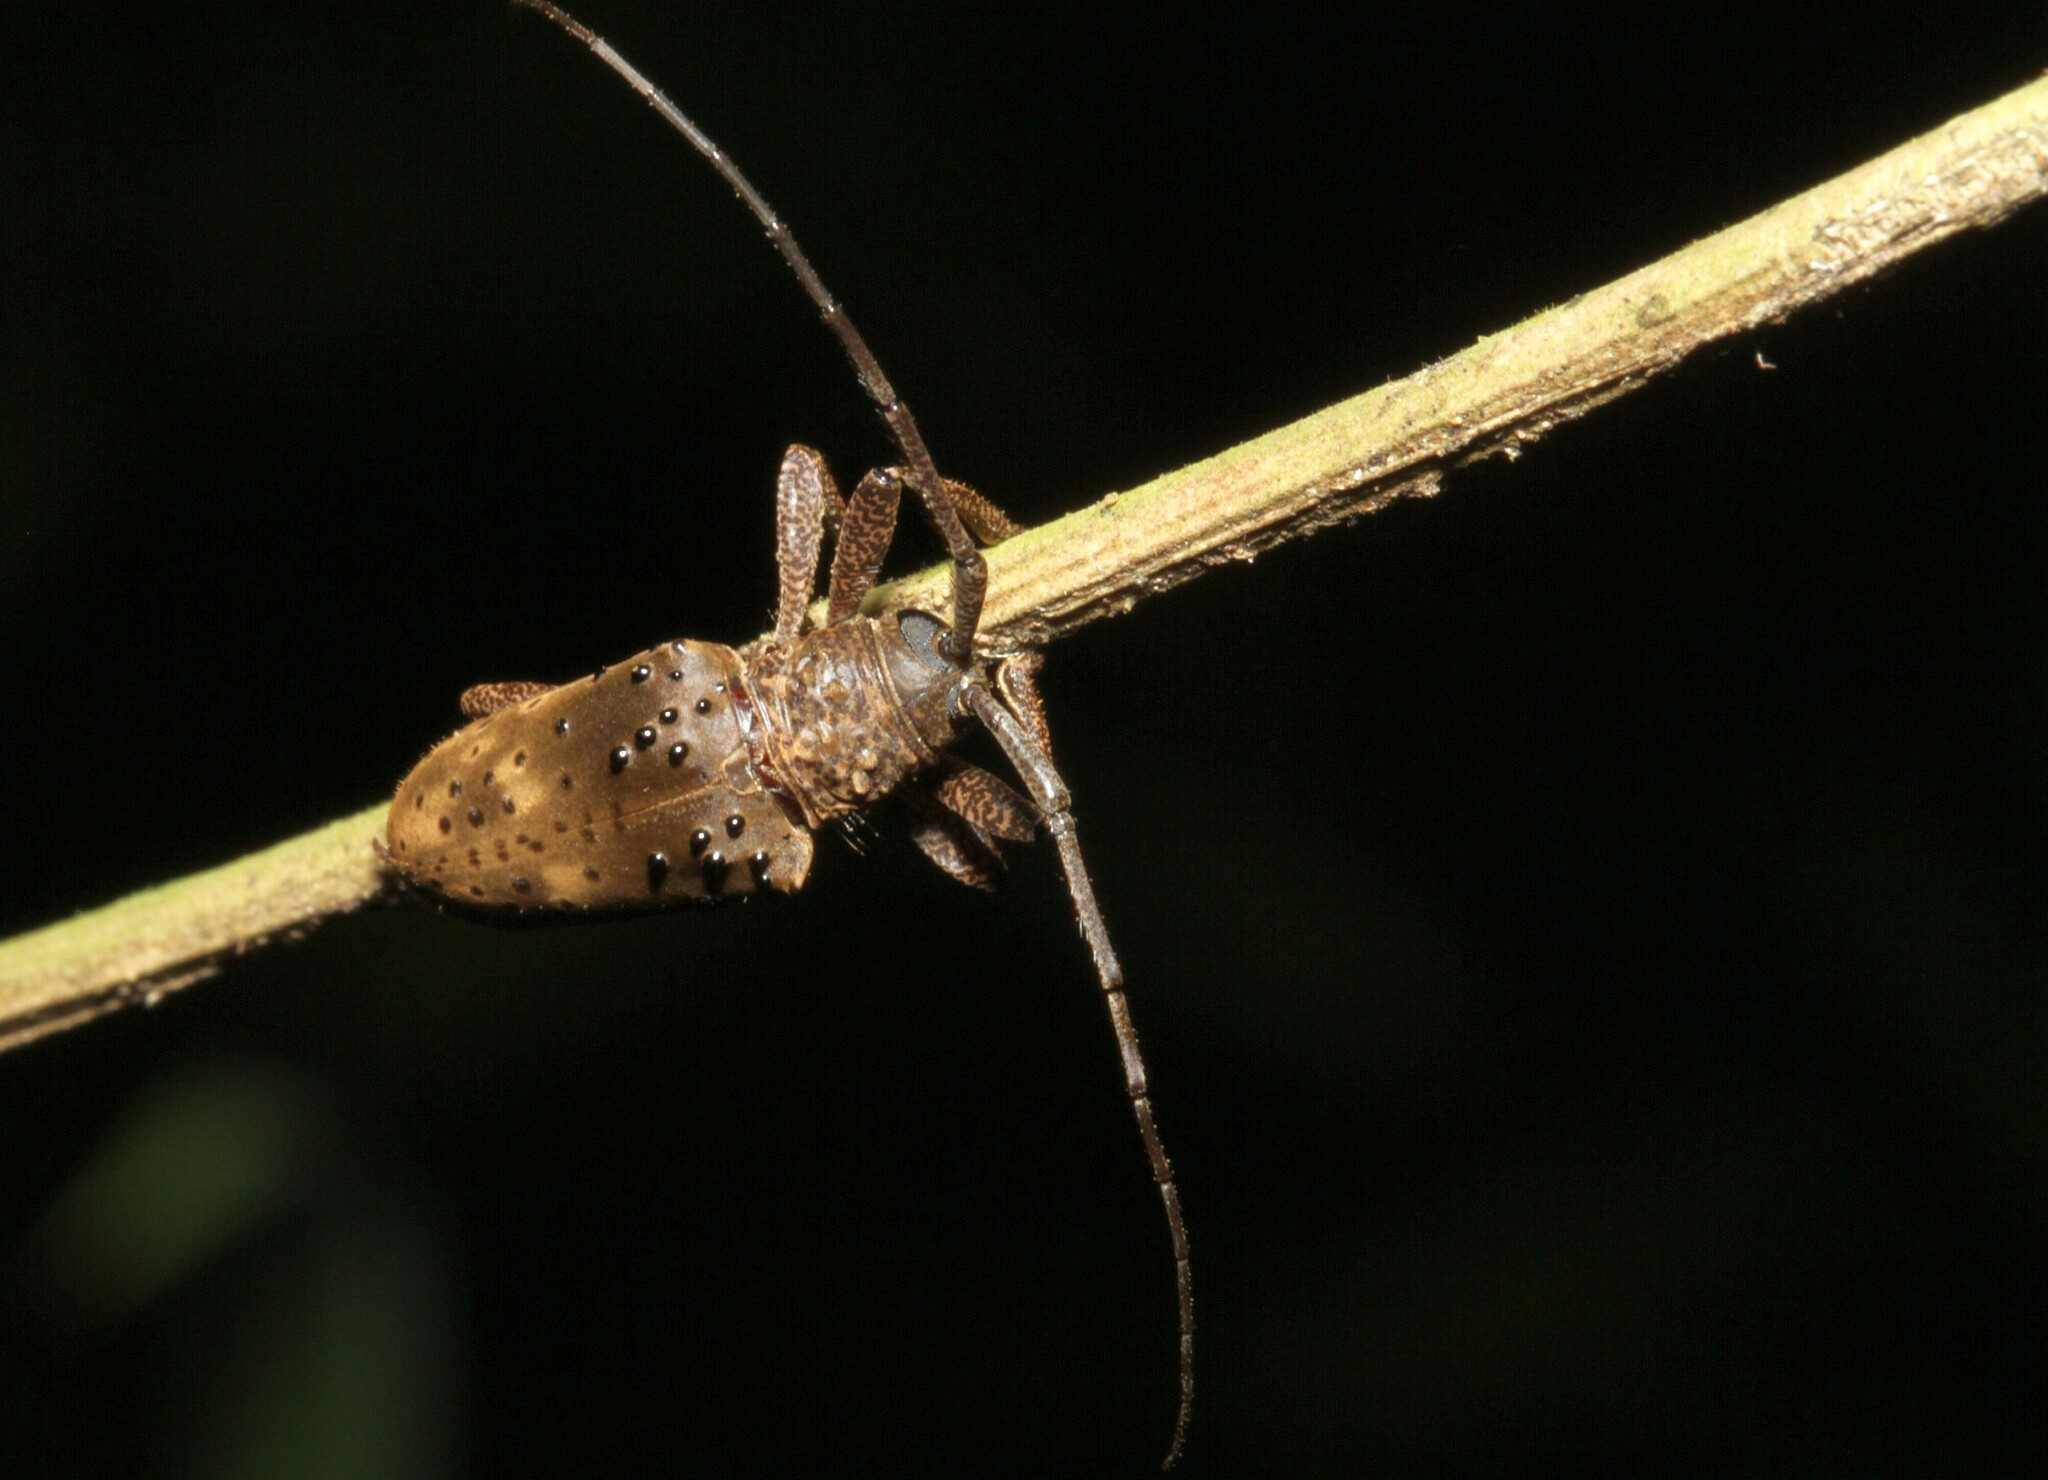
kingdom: Animalia
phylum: Arthropoda
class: Insecta
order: Coleoptera
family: Cerambycidae
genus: Jamesia
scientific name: Jamesia globifera
